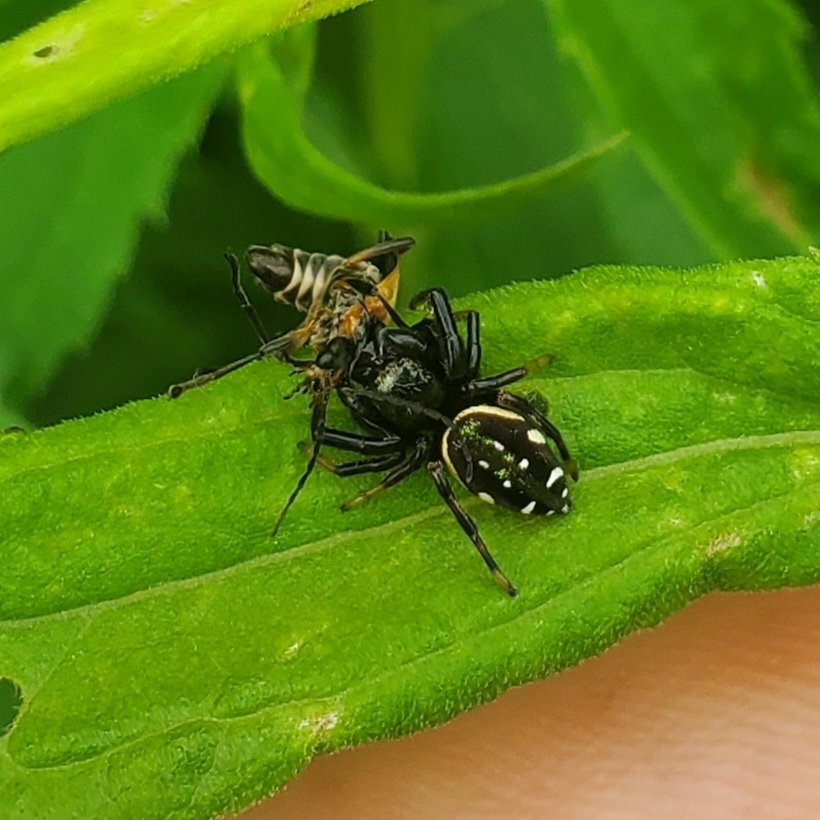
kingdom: Animalia
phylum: Arthropoda
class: Arachnida
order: Araneae
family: Salticidae
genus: Paraphidippus
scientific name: Paraphidippus aurantius
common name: Jumping spiders
